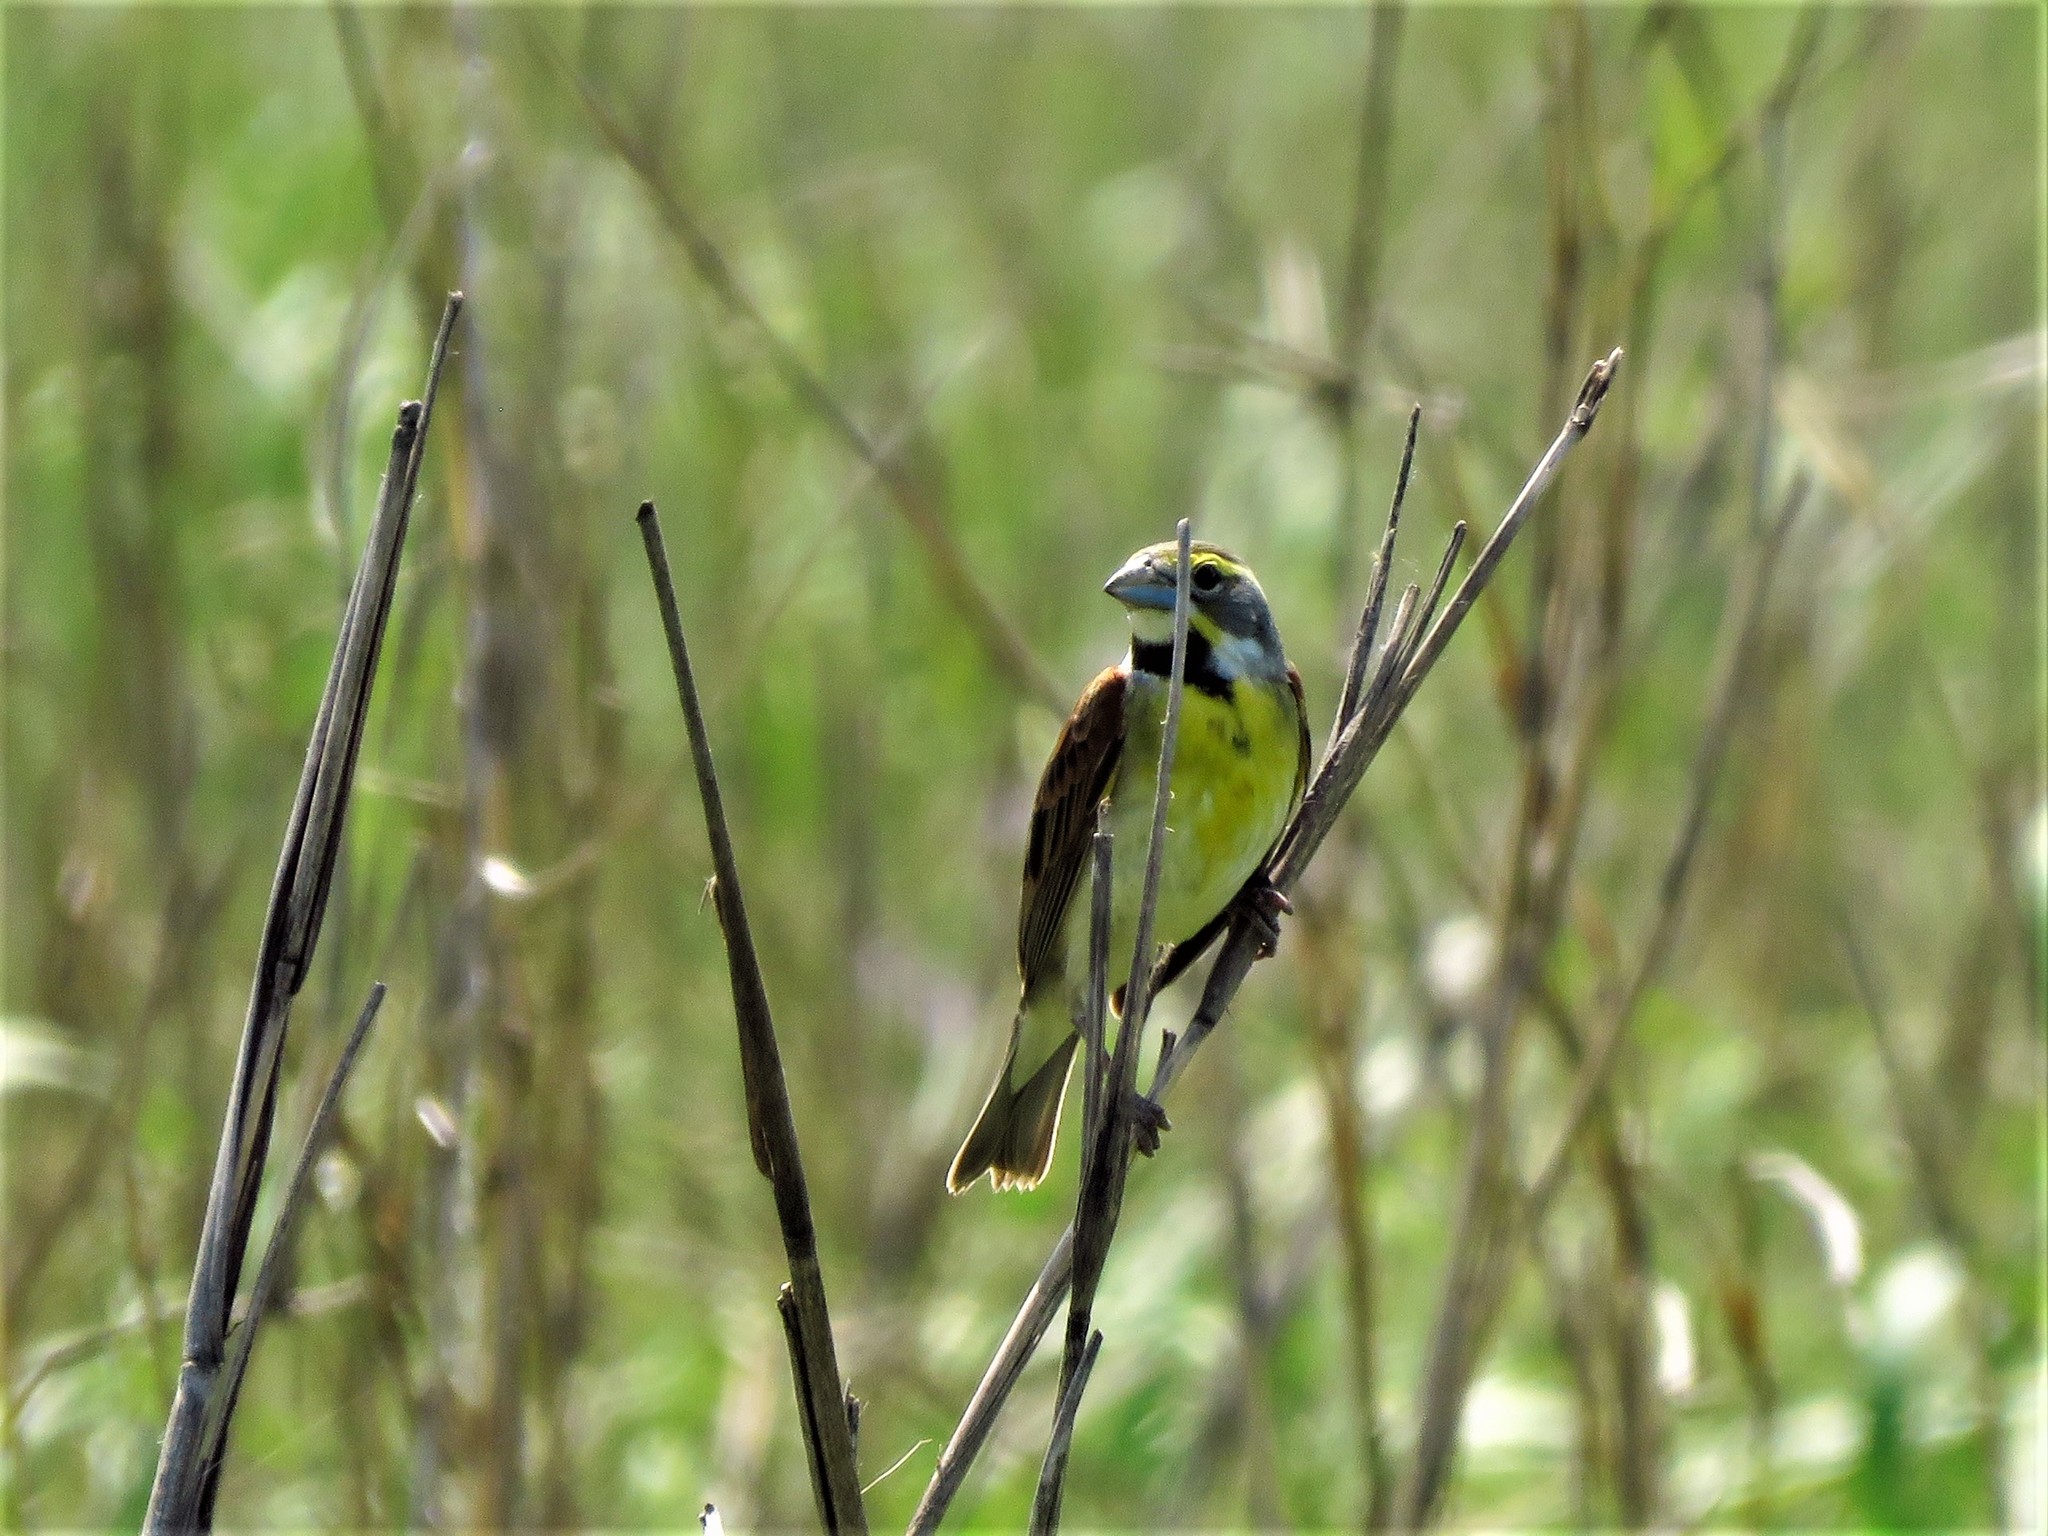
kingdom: Animalia
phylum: Chordata
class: Aves
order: Passeriformes
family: Cardinalidae
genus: Spiza
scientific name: Spiza americana
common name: Dickcissel
